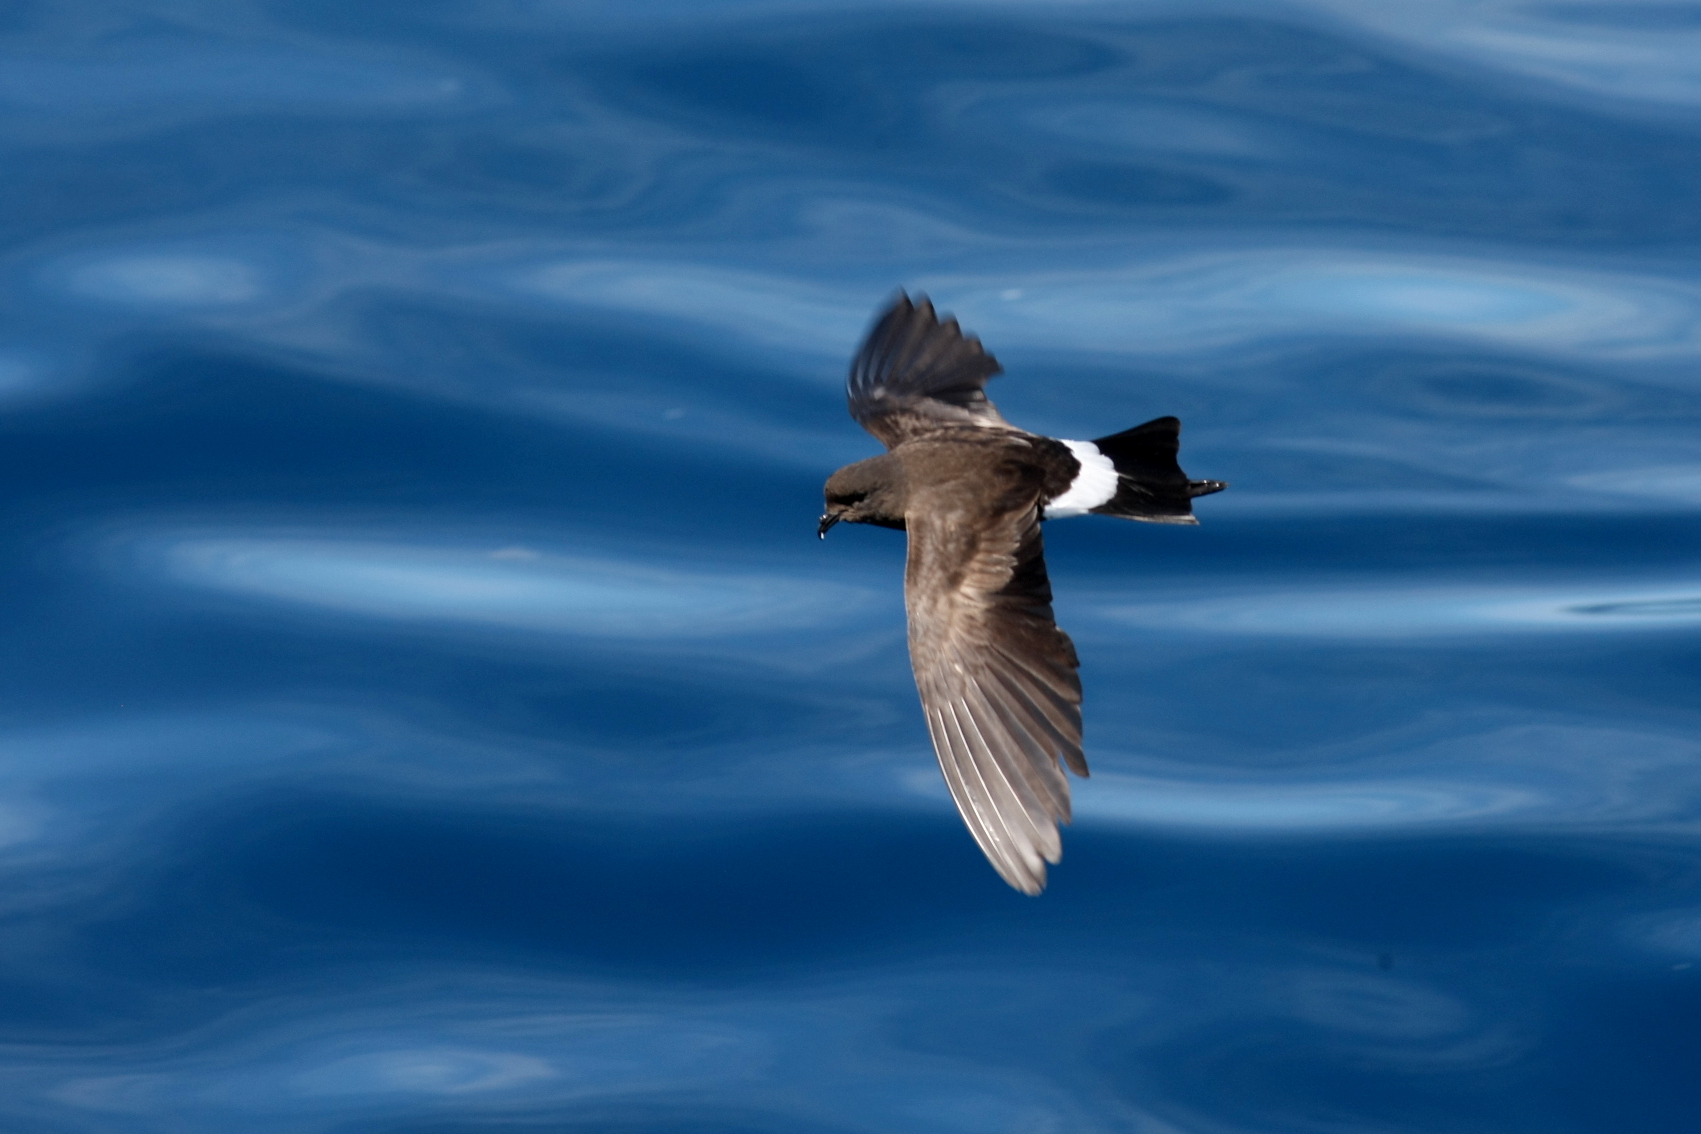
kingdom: Animalia
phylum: Chordata
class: Aves
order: Procellariiformes
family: Hydrobatidae
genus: Oceanites
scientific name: Oceanites oceanicus
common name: Wilson's storm petrel
